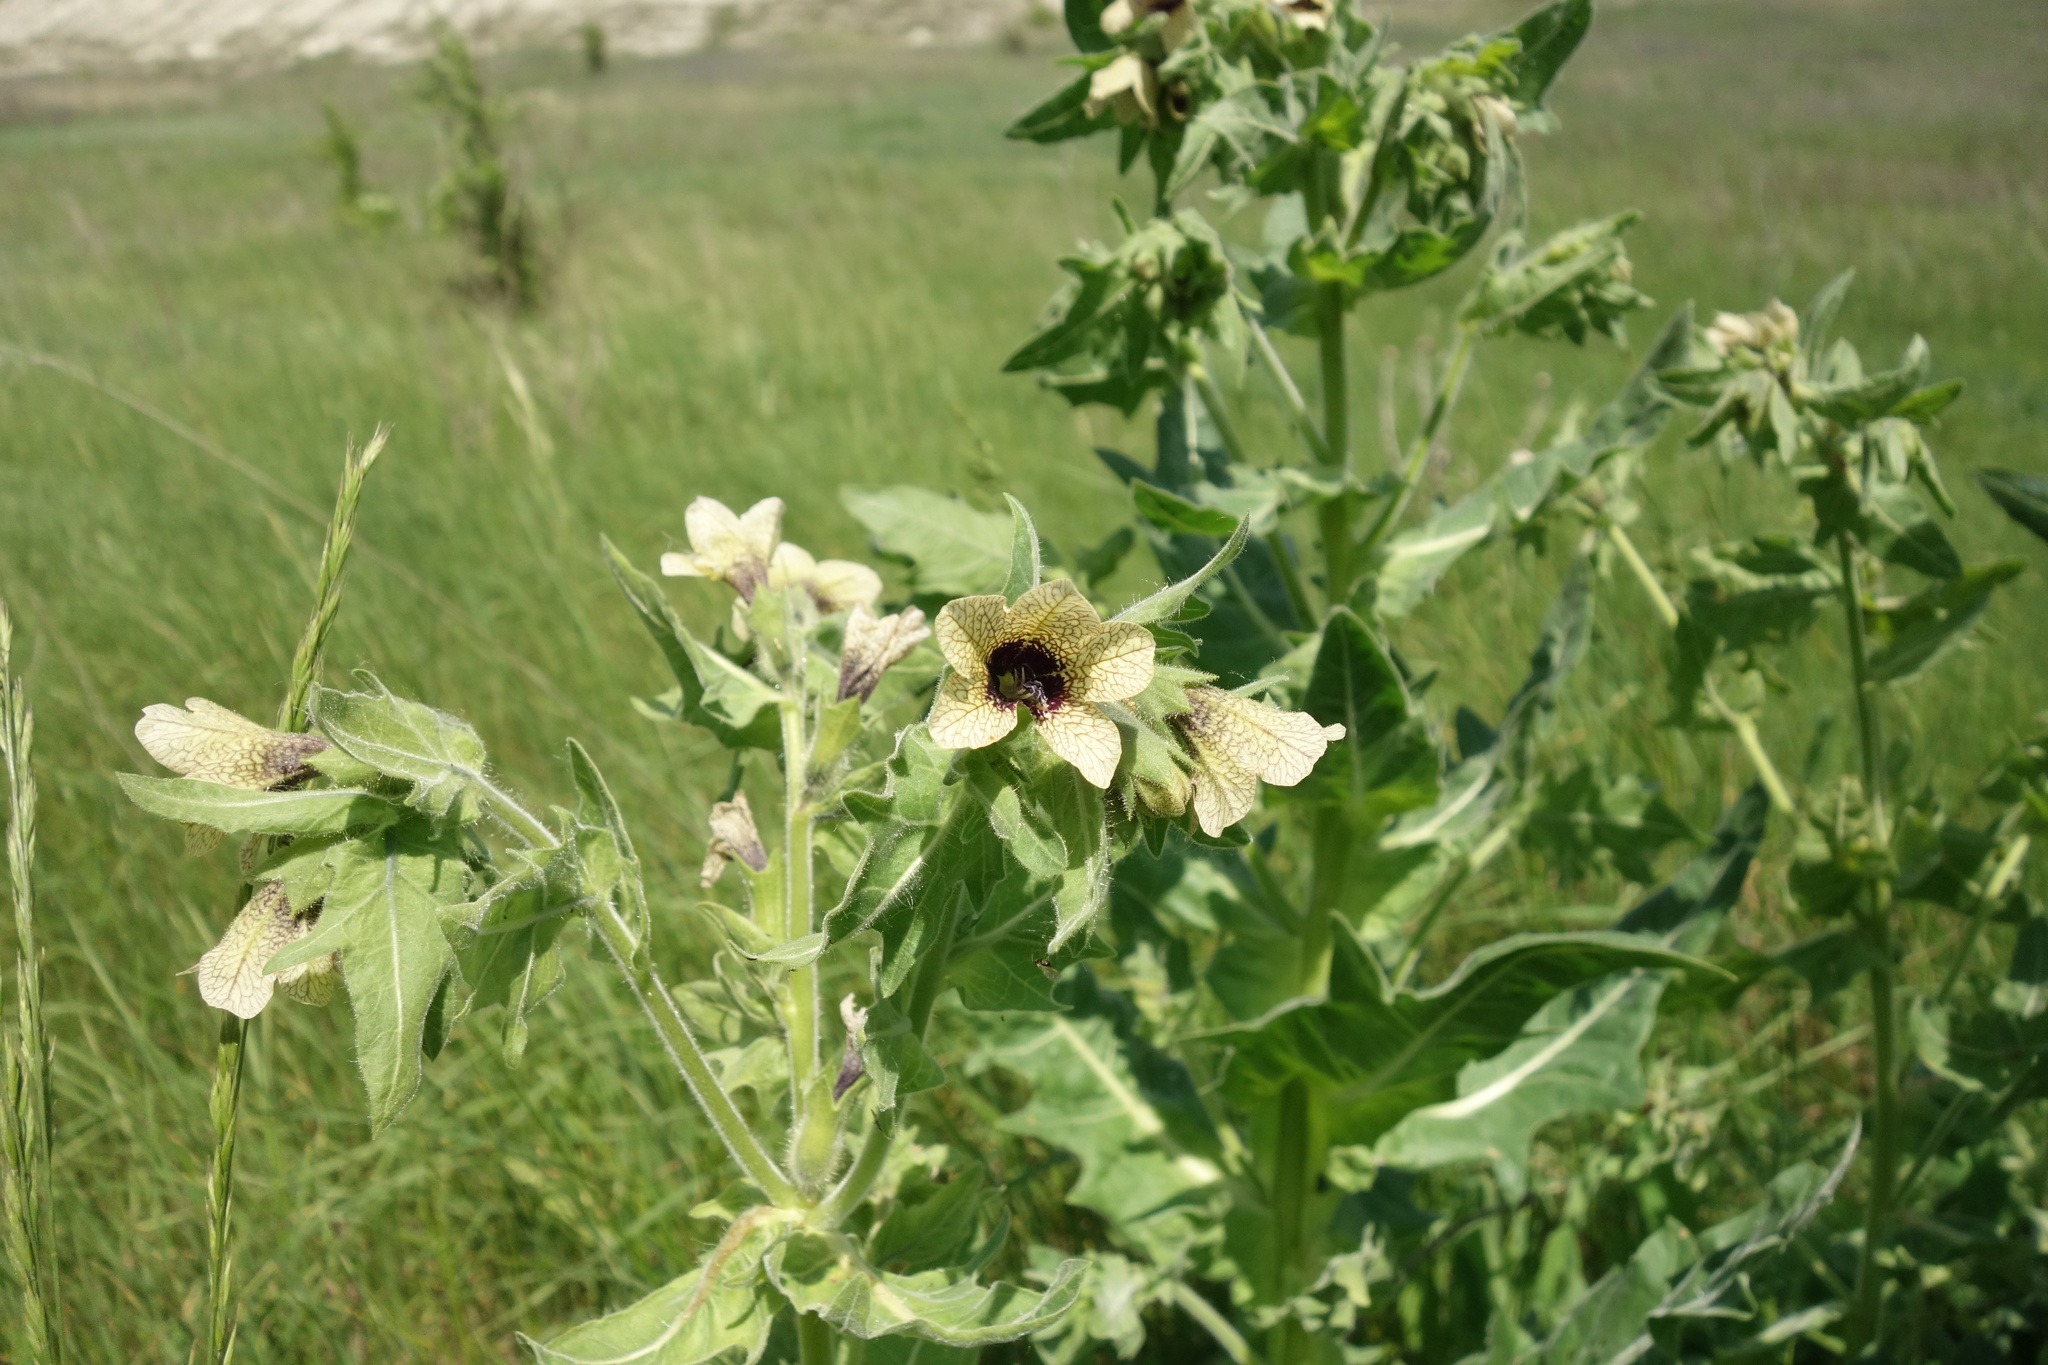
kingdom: Plantae
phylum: Tracheophyta
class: Magnoliopsida
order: Solanales
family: Solanaceae
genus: Hyoscyamus
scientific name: Hyoscyamus niger
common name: Henbane
